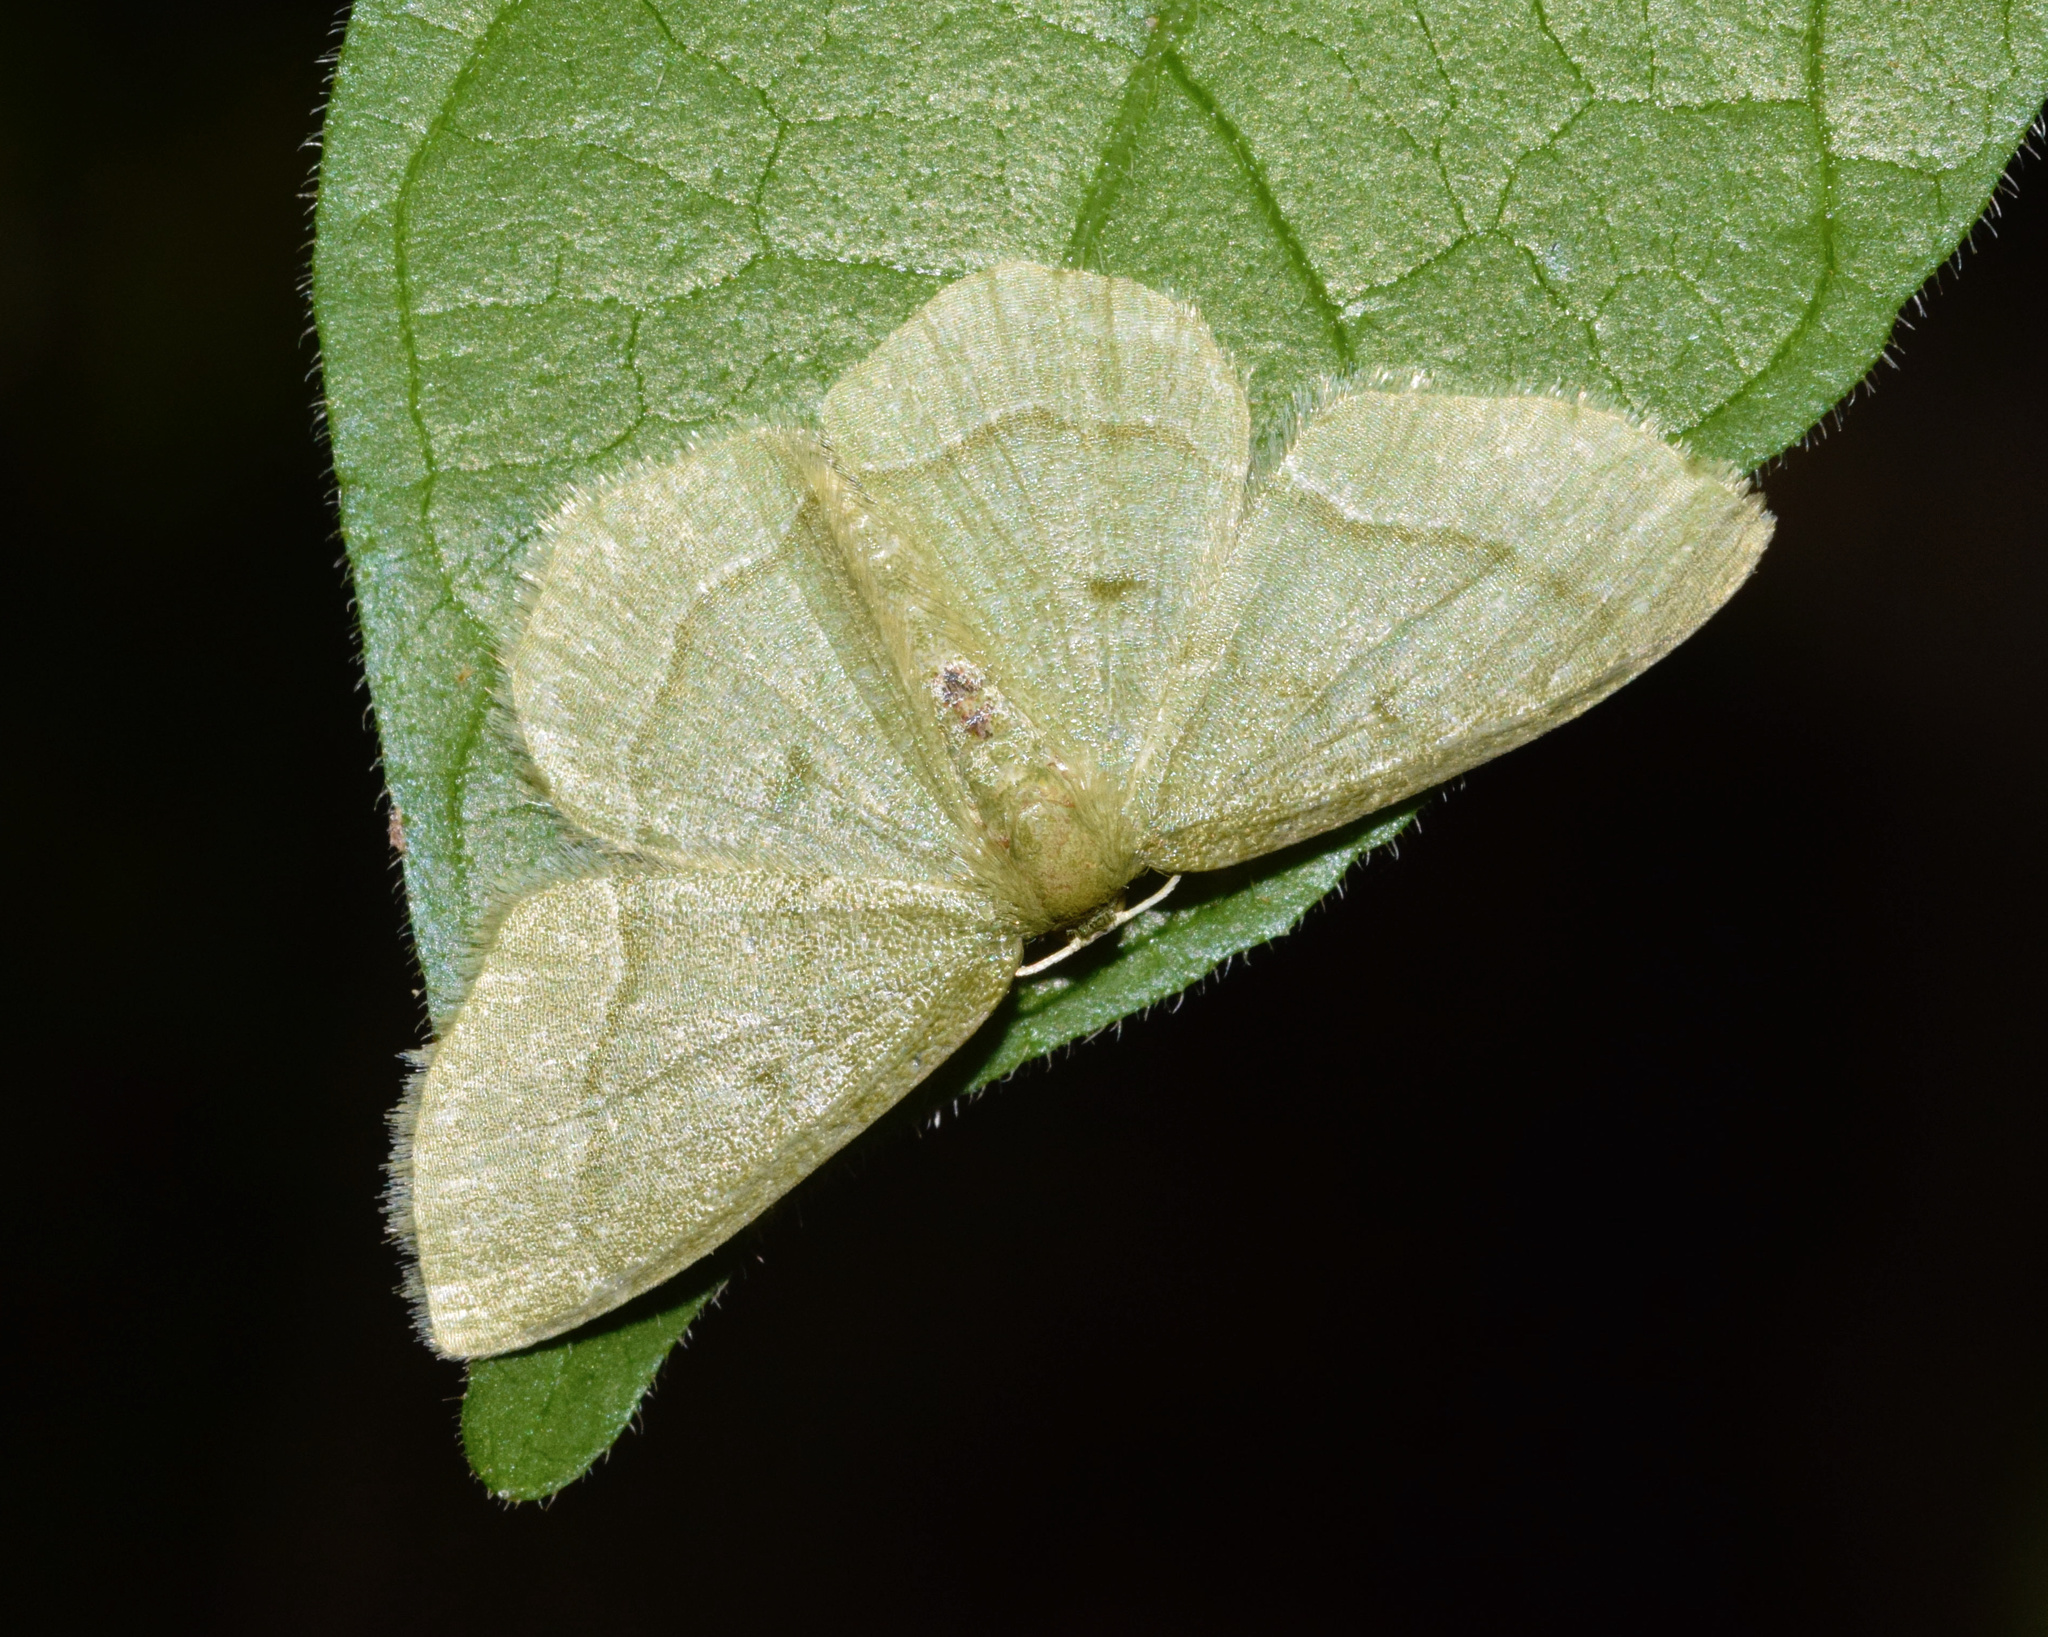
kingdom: Animalia
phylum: Arthropoda
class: Insecta
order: Lepidoptera
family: Geometridae
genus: Chlorissa
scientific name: Chlorissa attenuata
